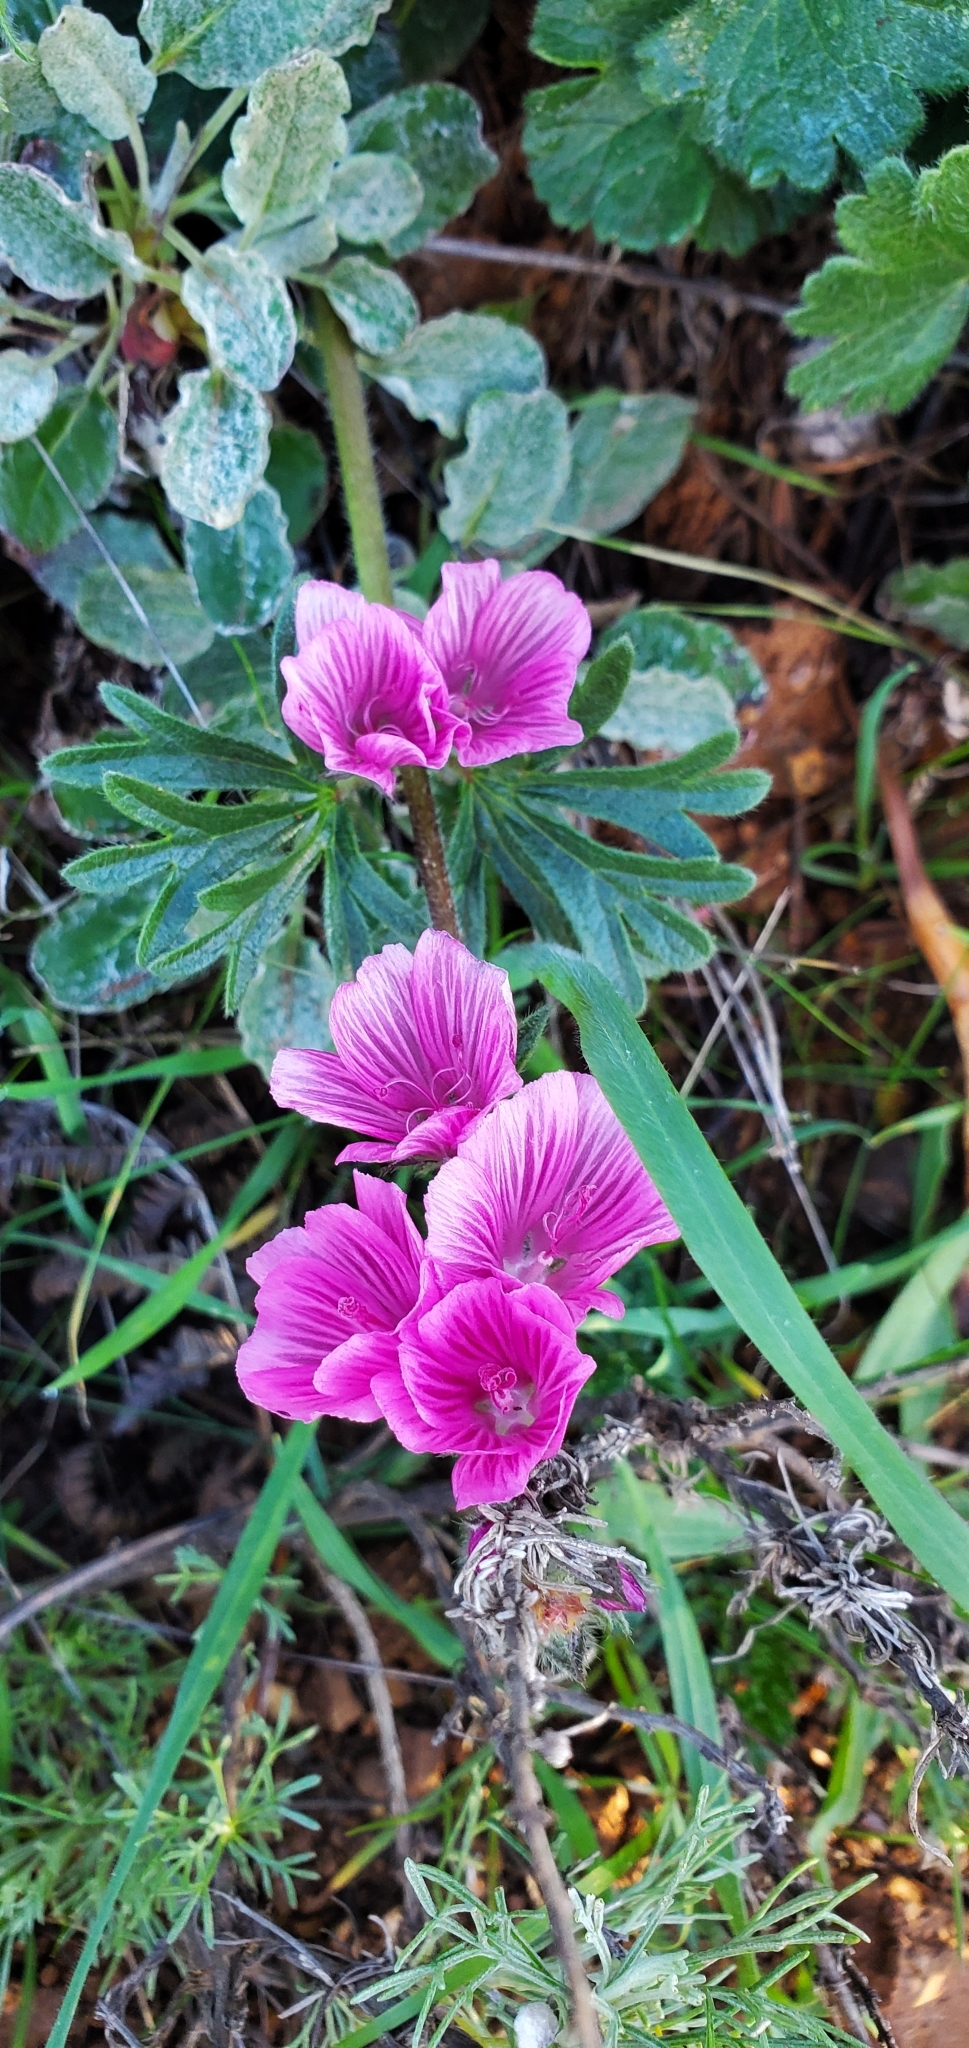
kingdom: Plantae
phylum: Tracheophyta
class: Magnoliopsida
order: Malvales
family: Malvaceae
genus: Sidalcea
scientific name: Sidalcea malviflora
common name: Greek mallow
